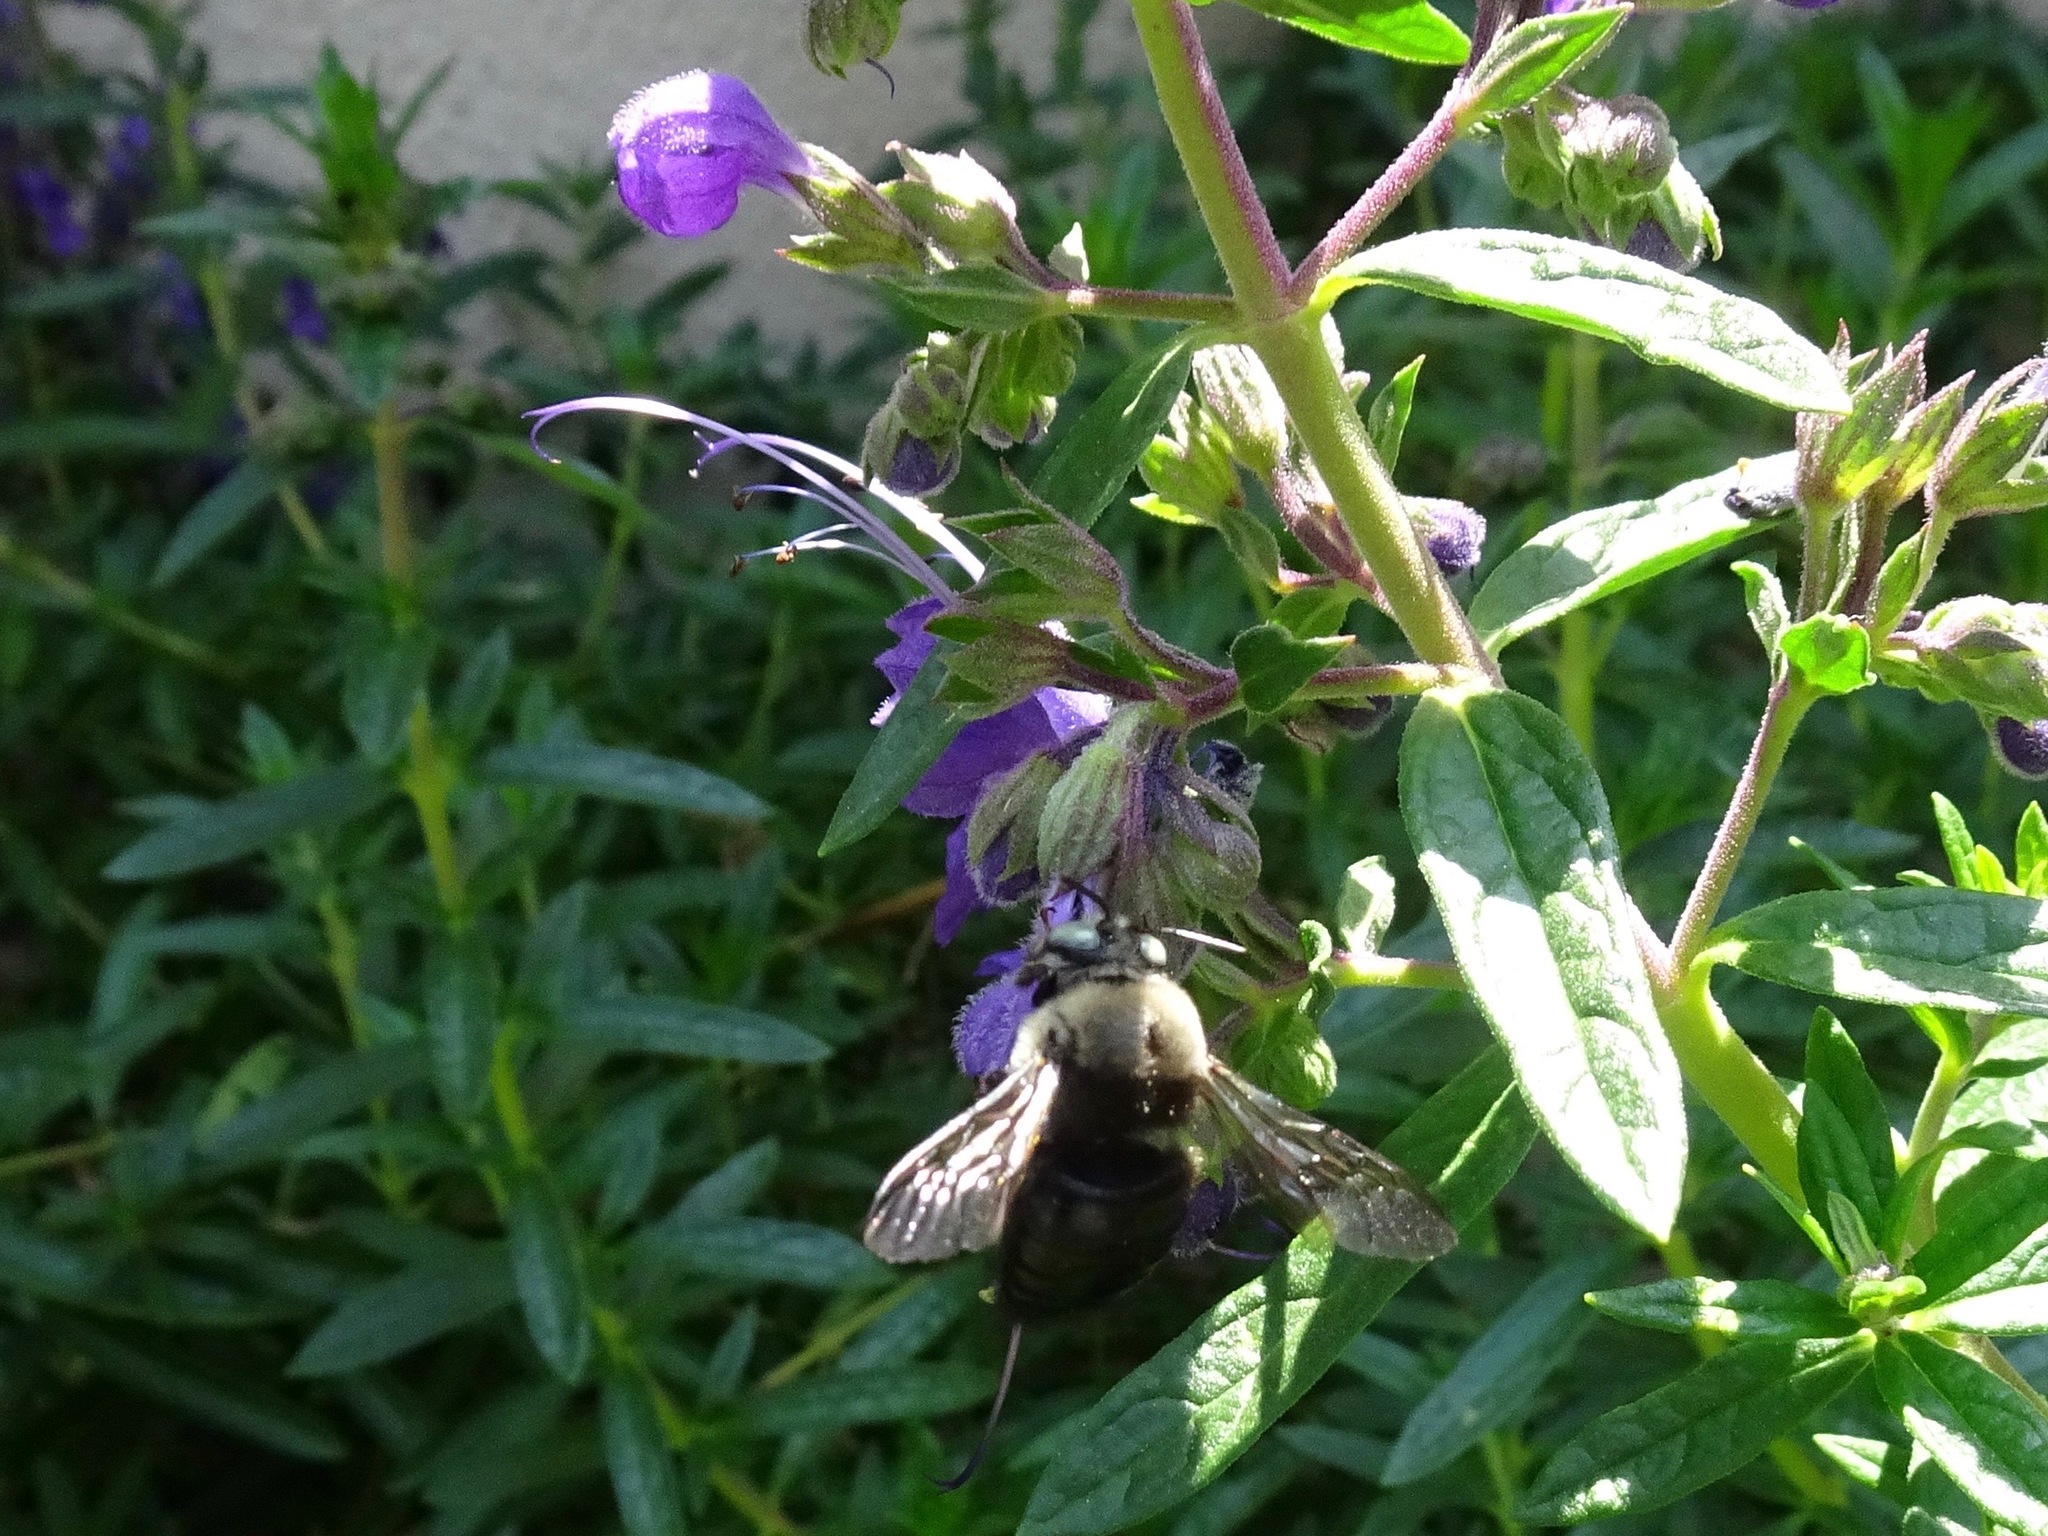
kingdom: Animalia
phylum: Arthropoda
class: Insecta
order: Hymenoptera
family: Apidae
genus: Xylocopa
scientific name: Xylocopa tabaniformis
